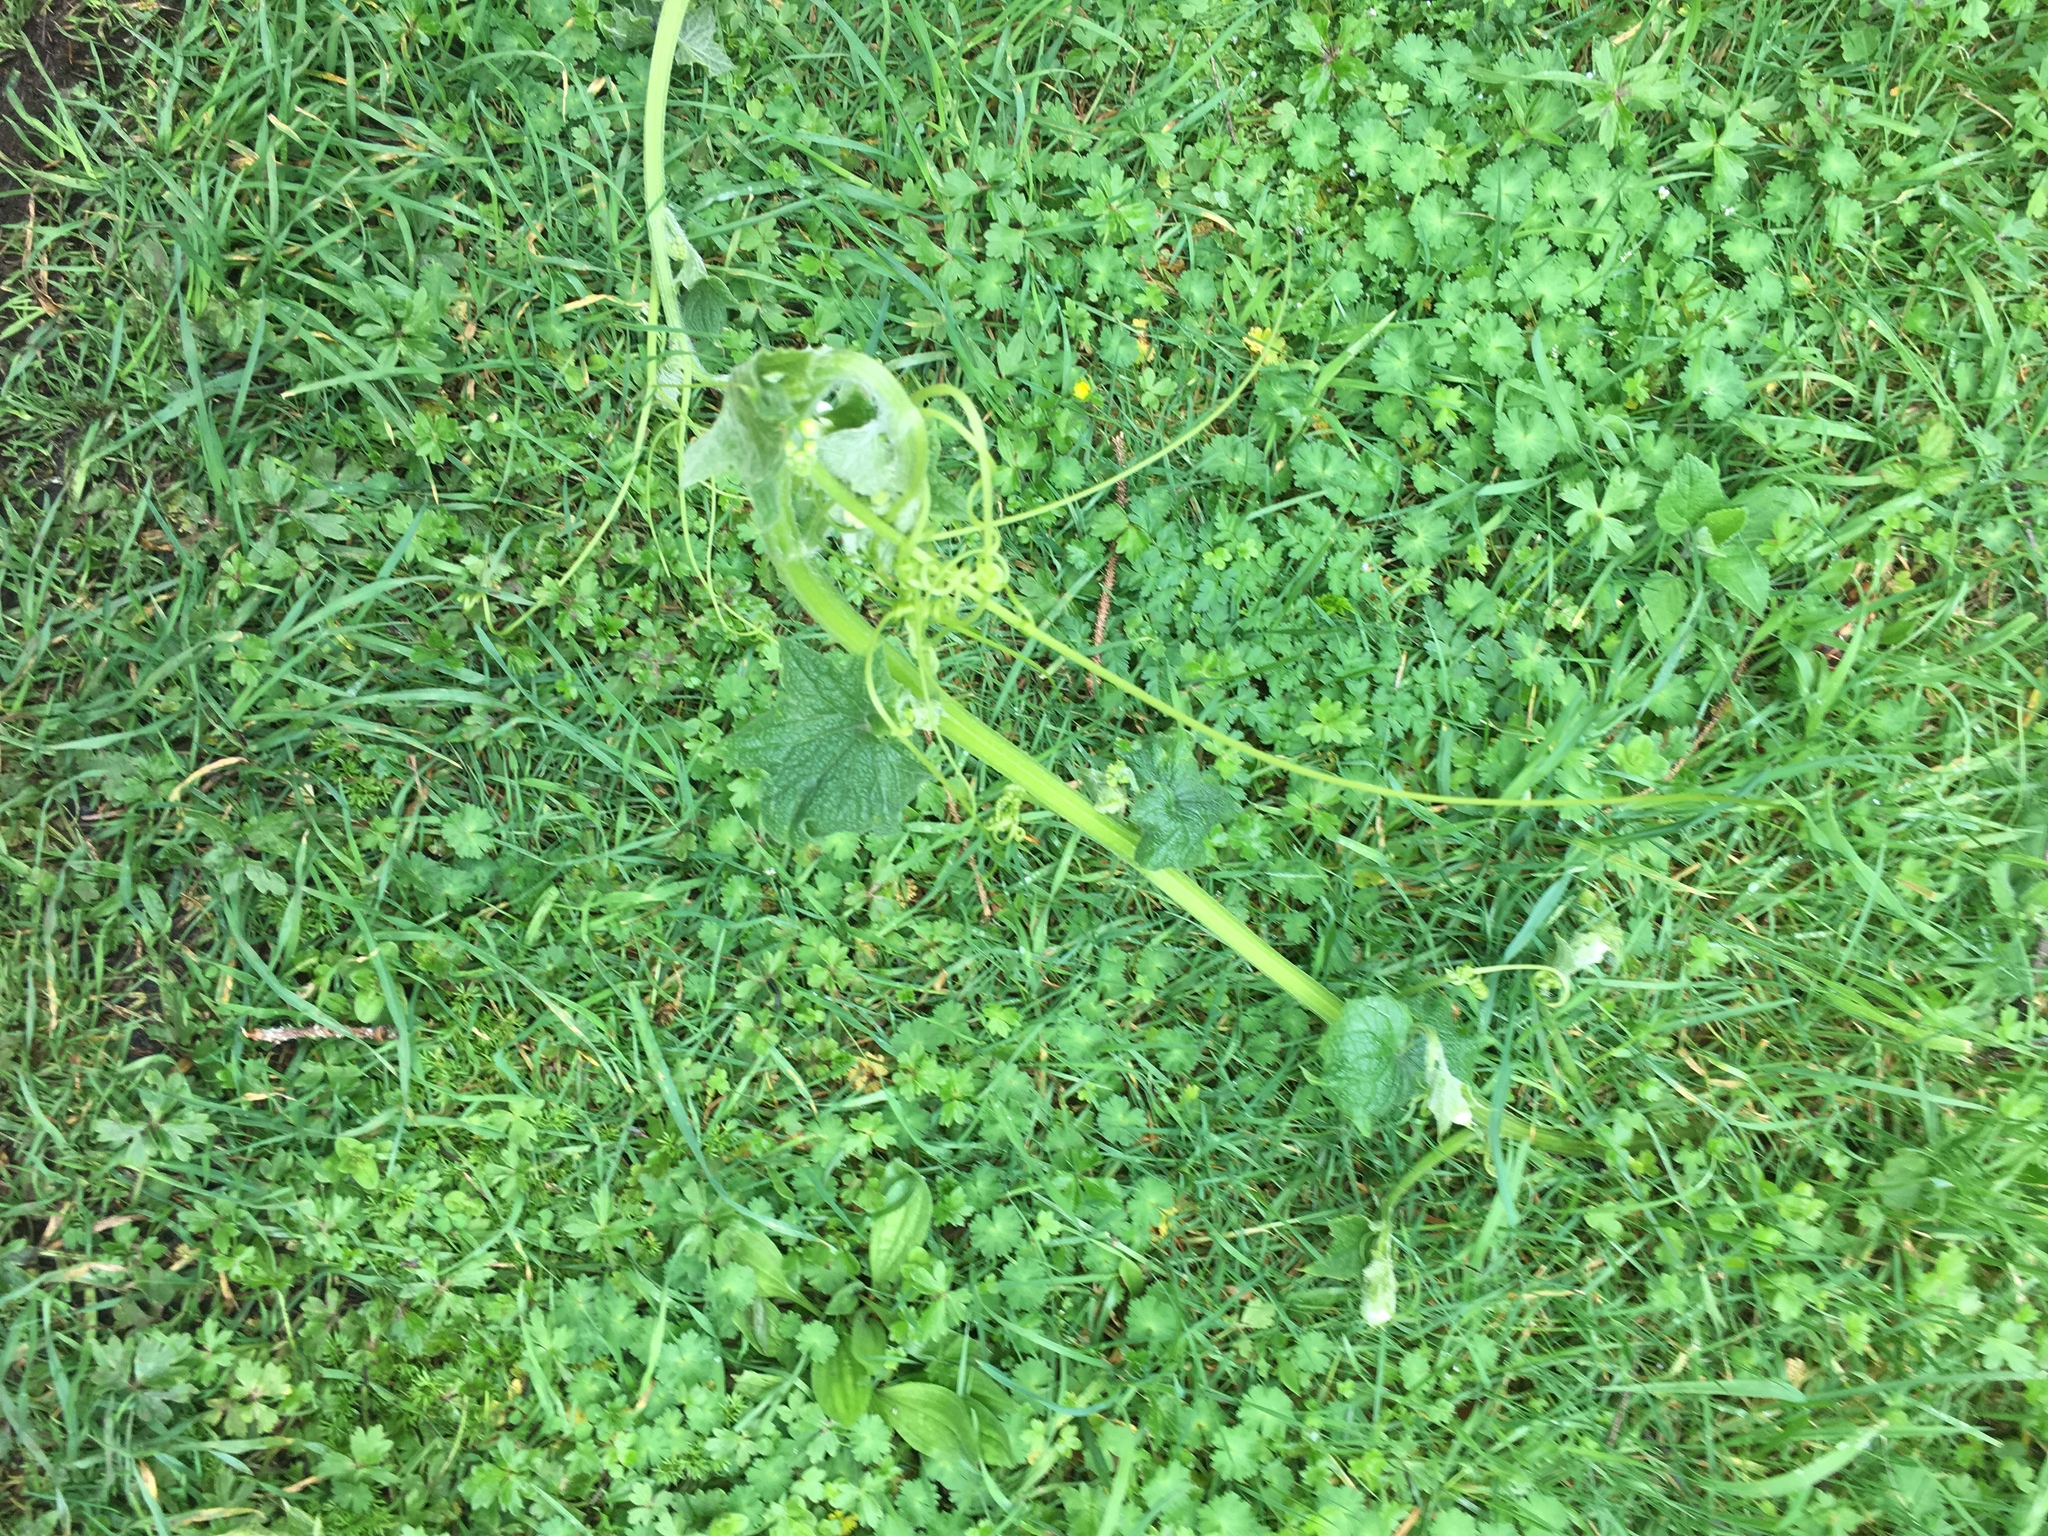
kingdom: Plantae
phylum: Tracheophyta
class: Magnoliopsida
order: Cucurbitales
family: Cucurbitaceae
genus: Marah
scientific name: Marah oregana
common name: Coastal manroot
